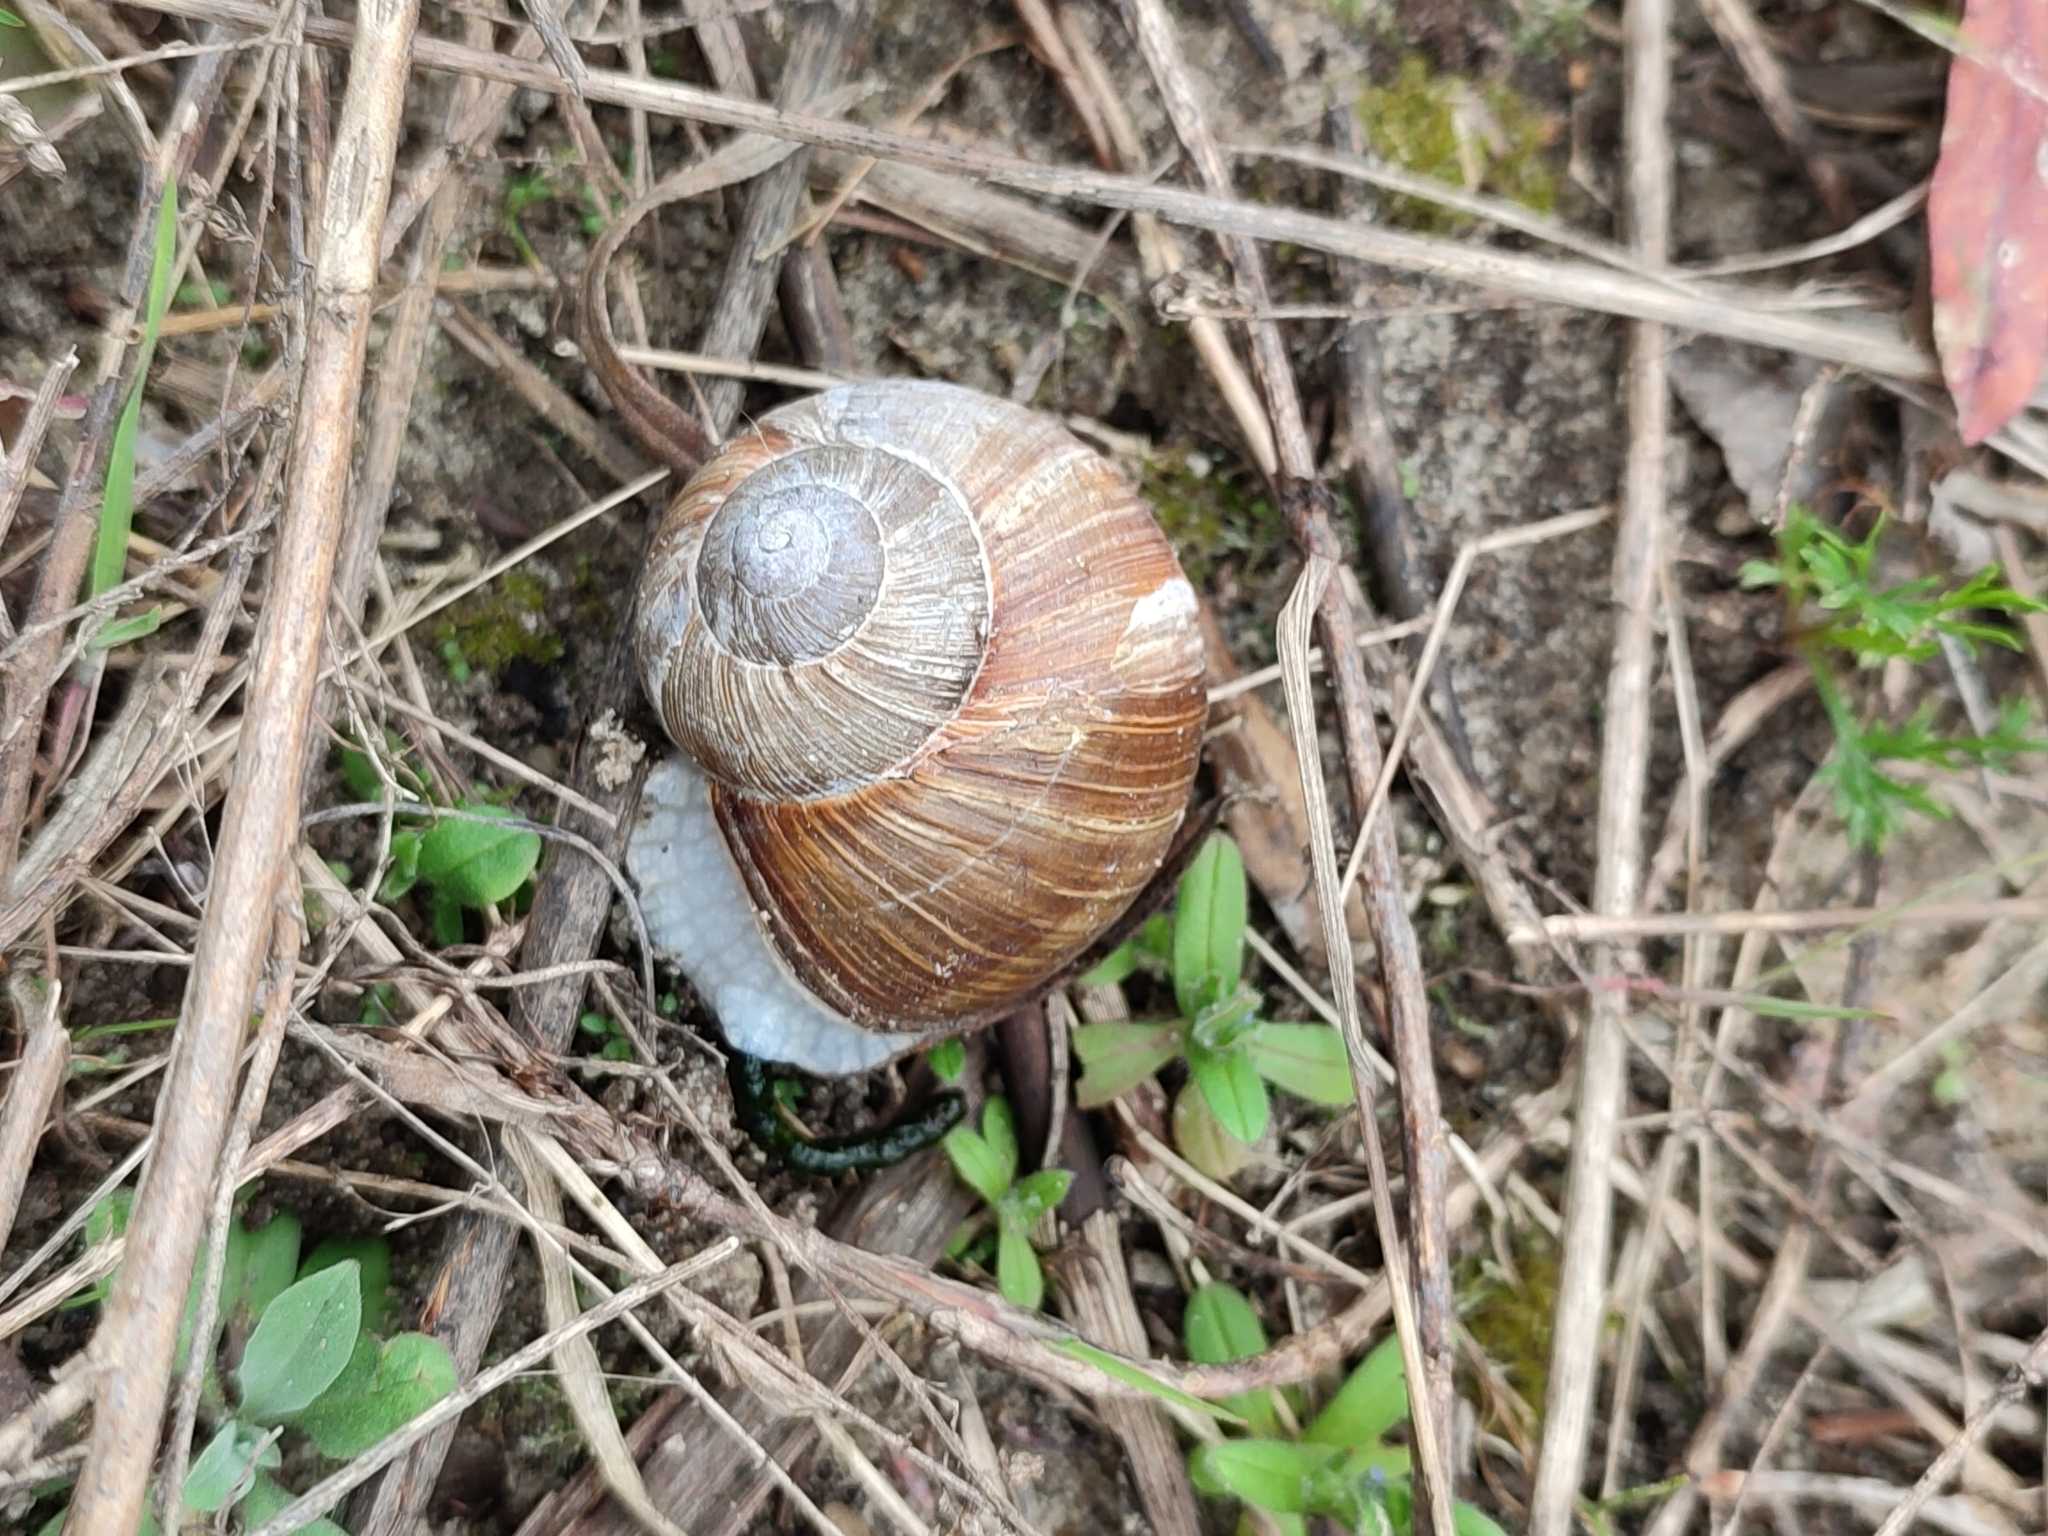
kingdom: Animalia
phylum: Mollusca
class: Gastropoda
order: Stylommatophora
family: Helicidae
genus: Helix
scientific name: Helix pomatia
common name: Roman snail
